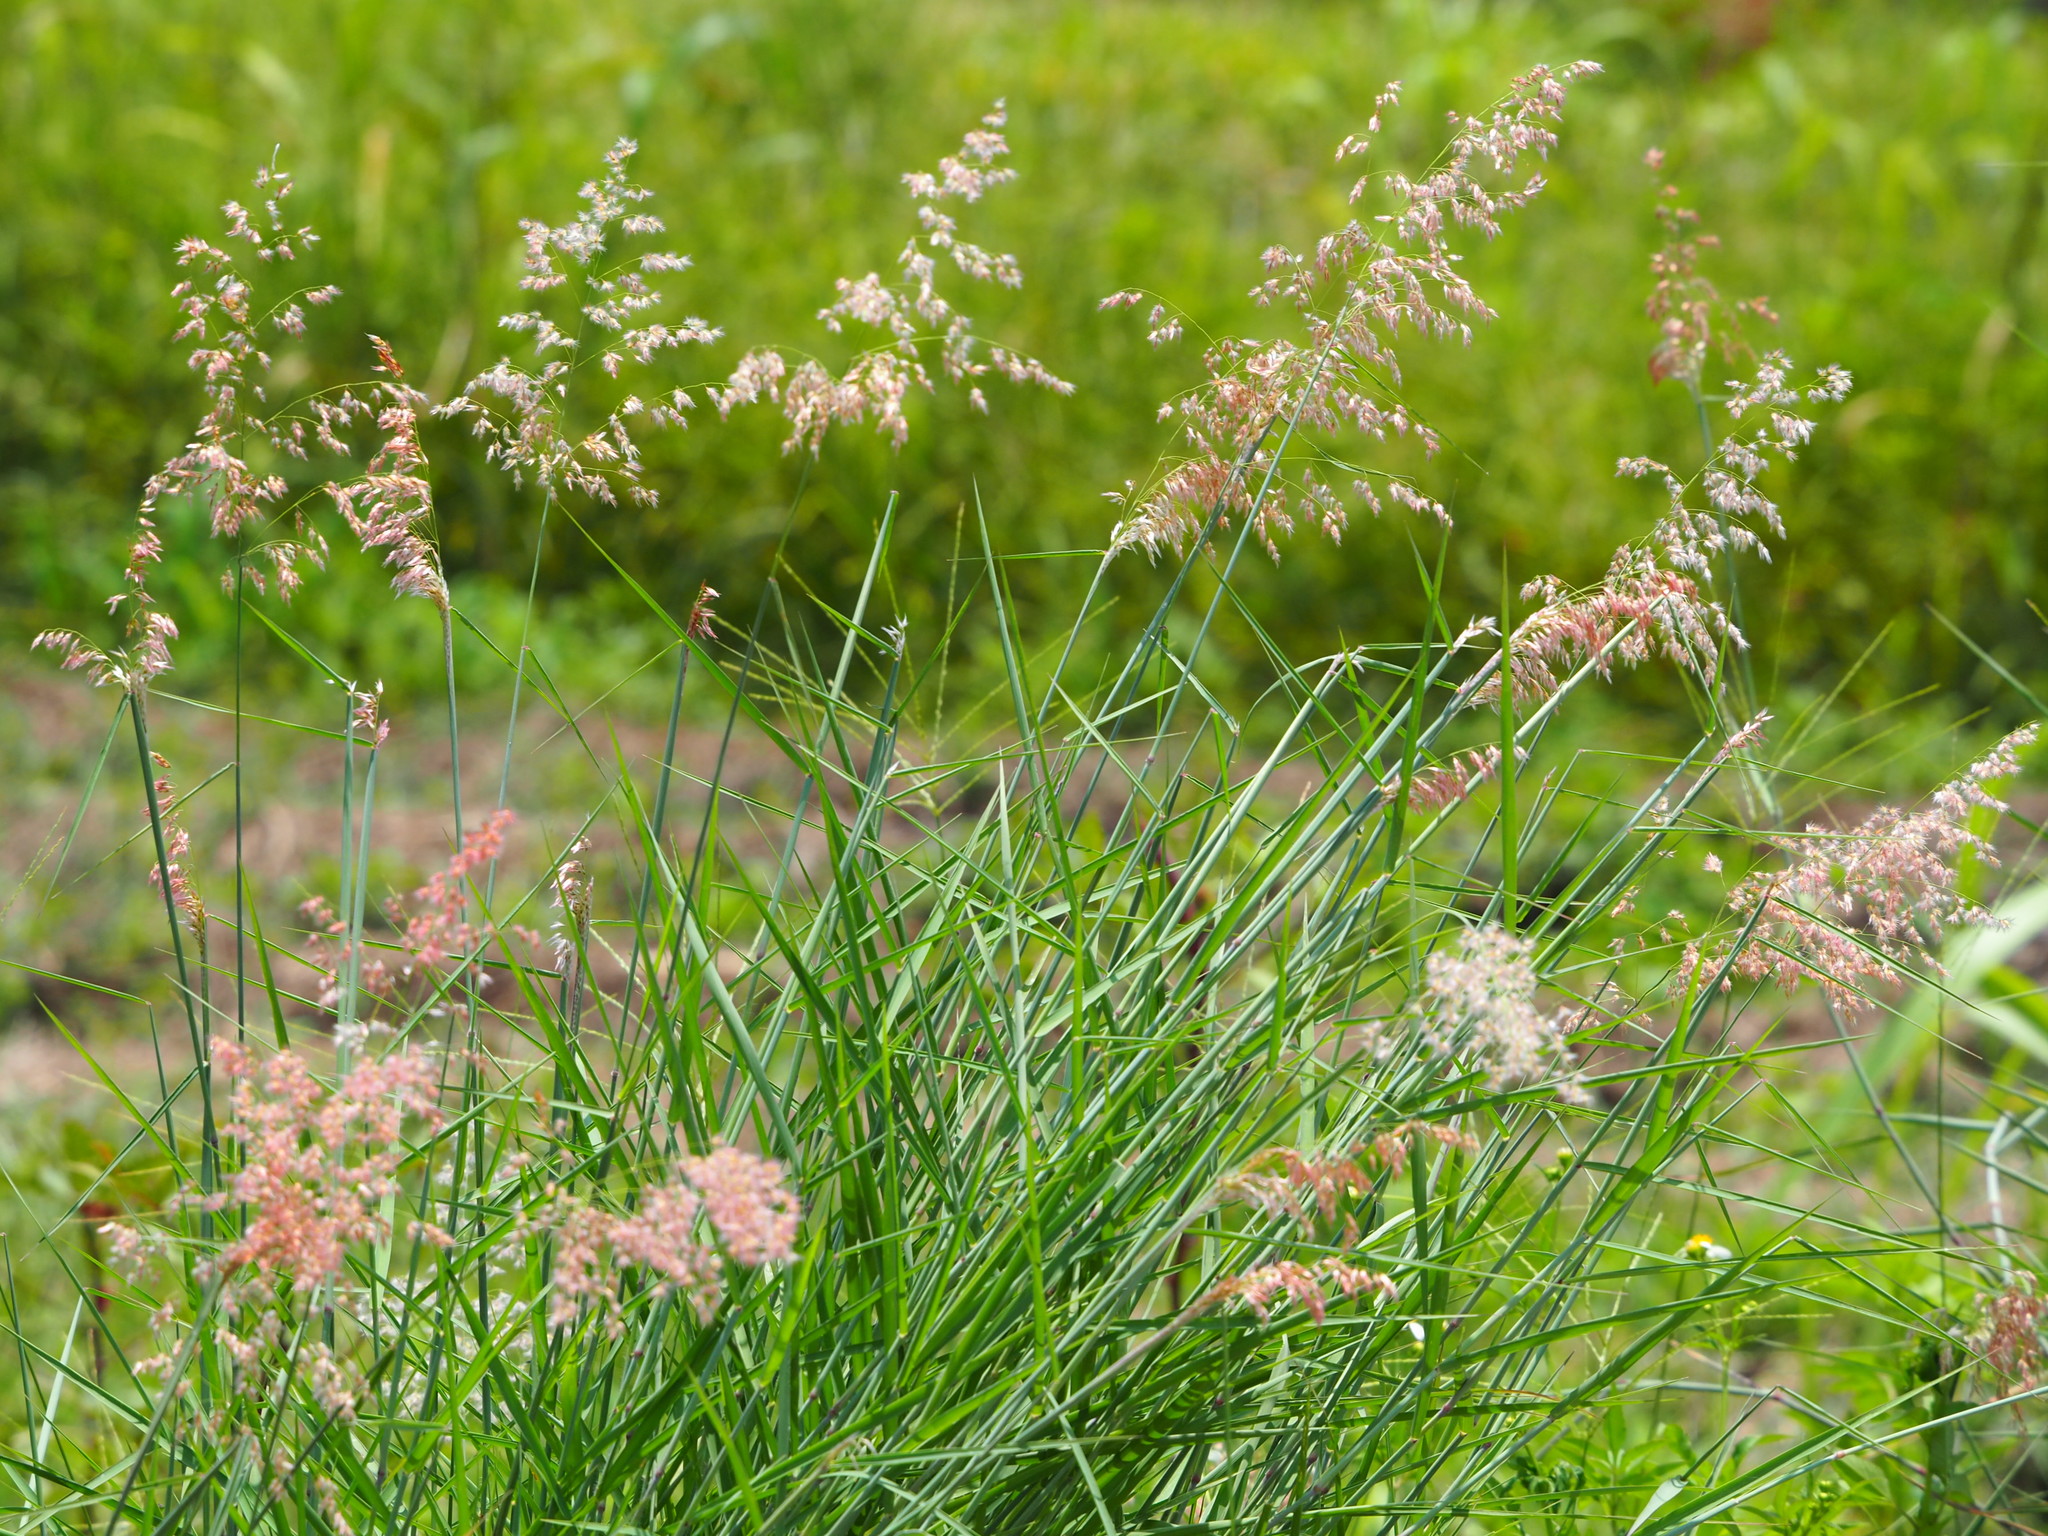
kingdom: Plantae
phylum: Tracheophyta
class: Liliopsida
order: Poales
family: Poaceae
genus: Melinis
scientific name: Melinis repens
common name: Rose natal grass
